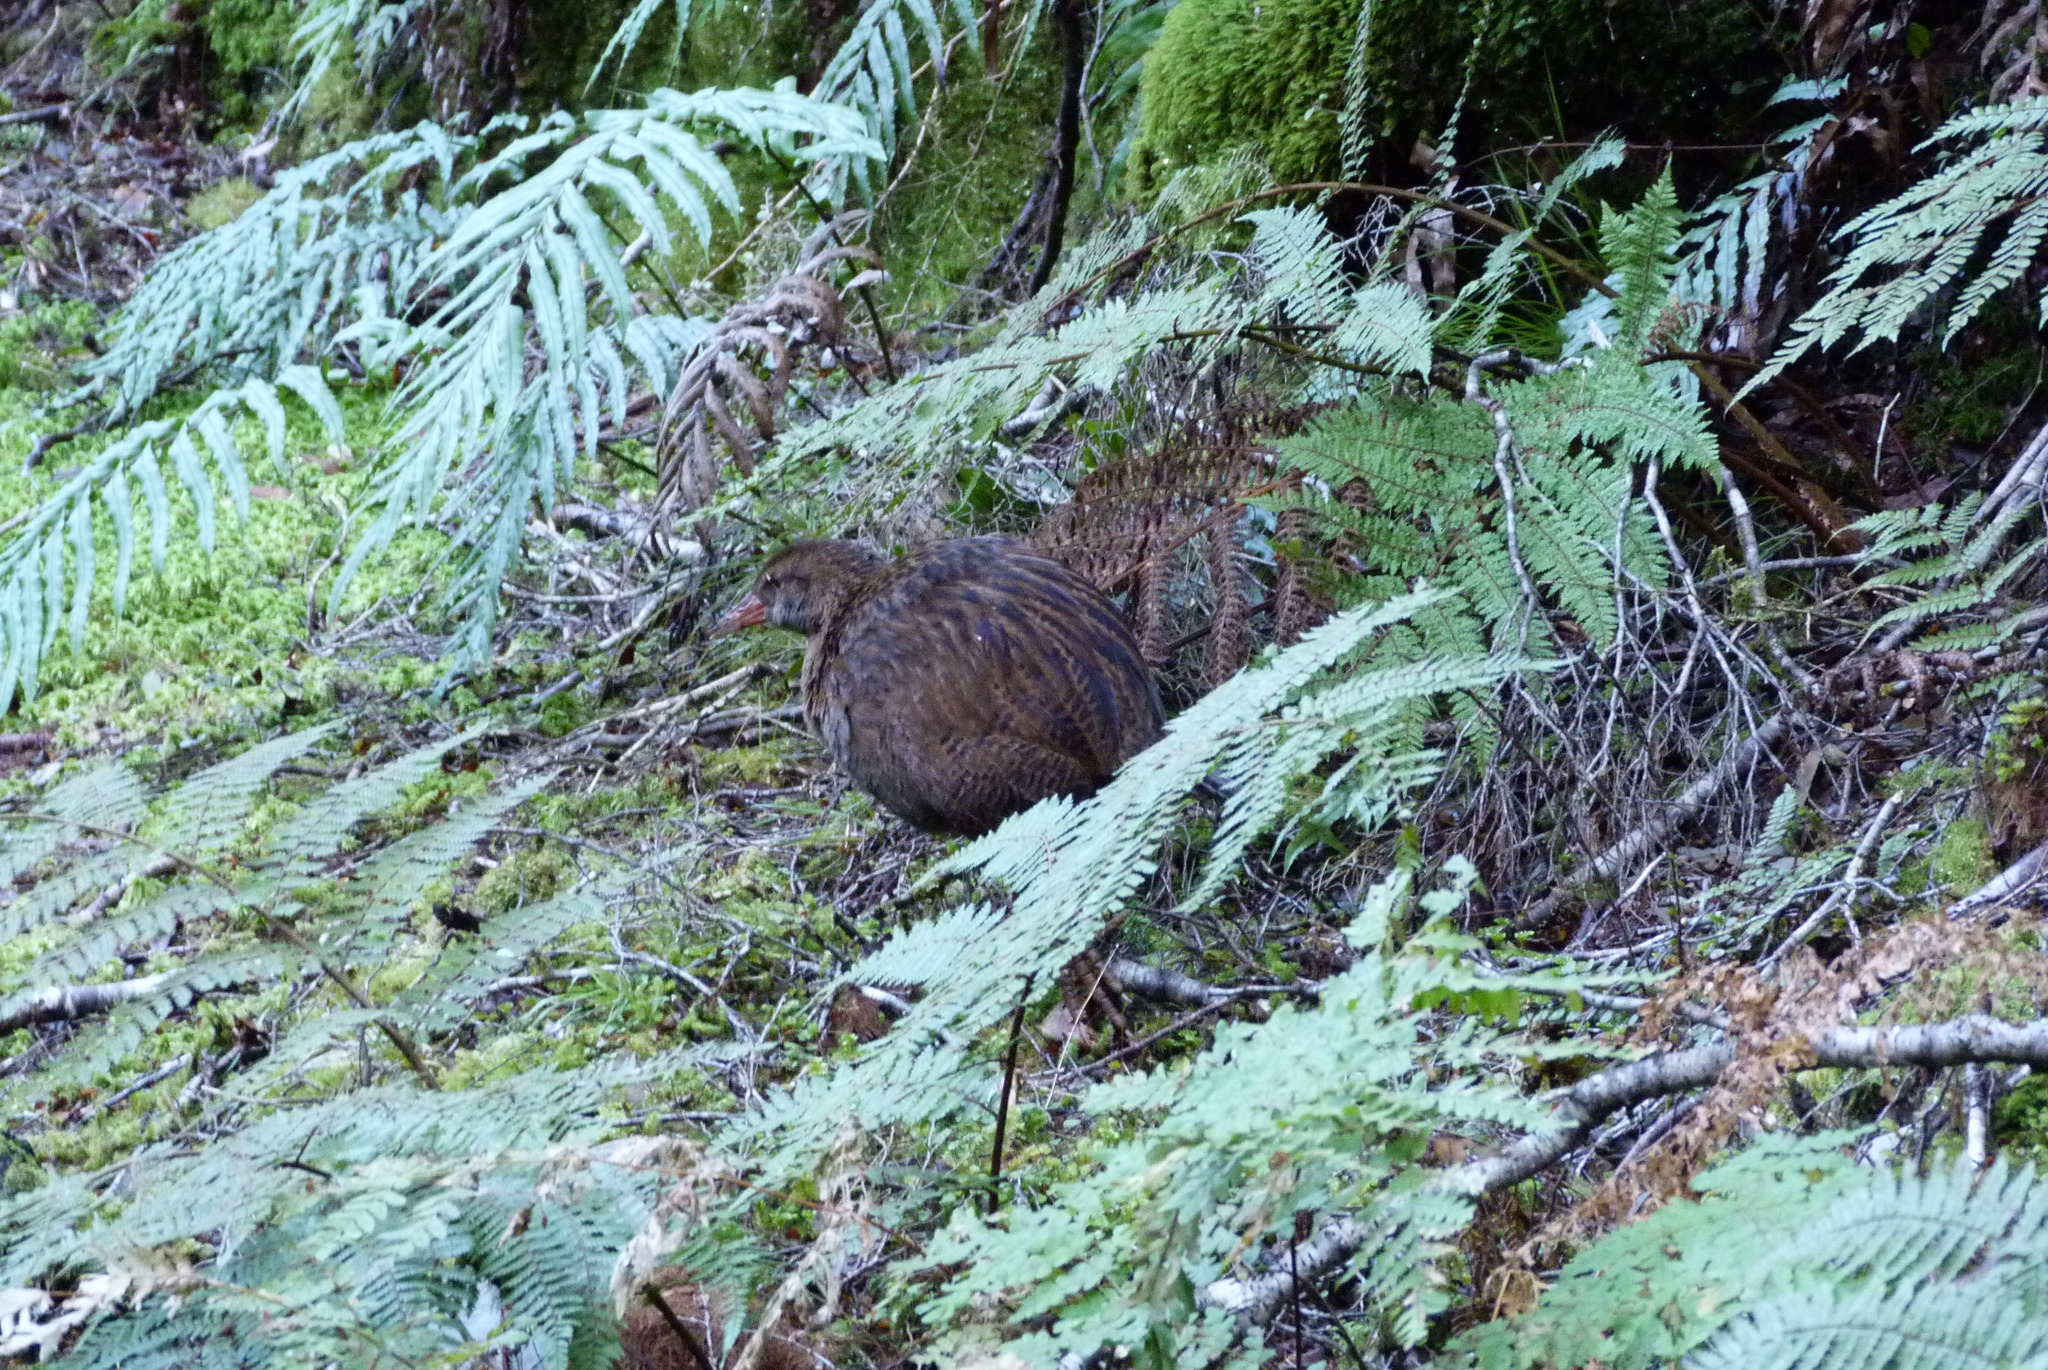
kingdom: Animalia
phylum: Chordata
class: Aves
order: Gruiformes
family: Rallidae
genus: Gallirallus
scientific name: Gallirallus australis
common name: Weka
